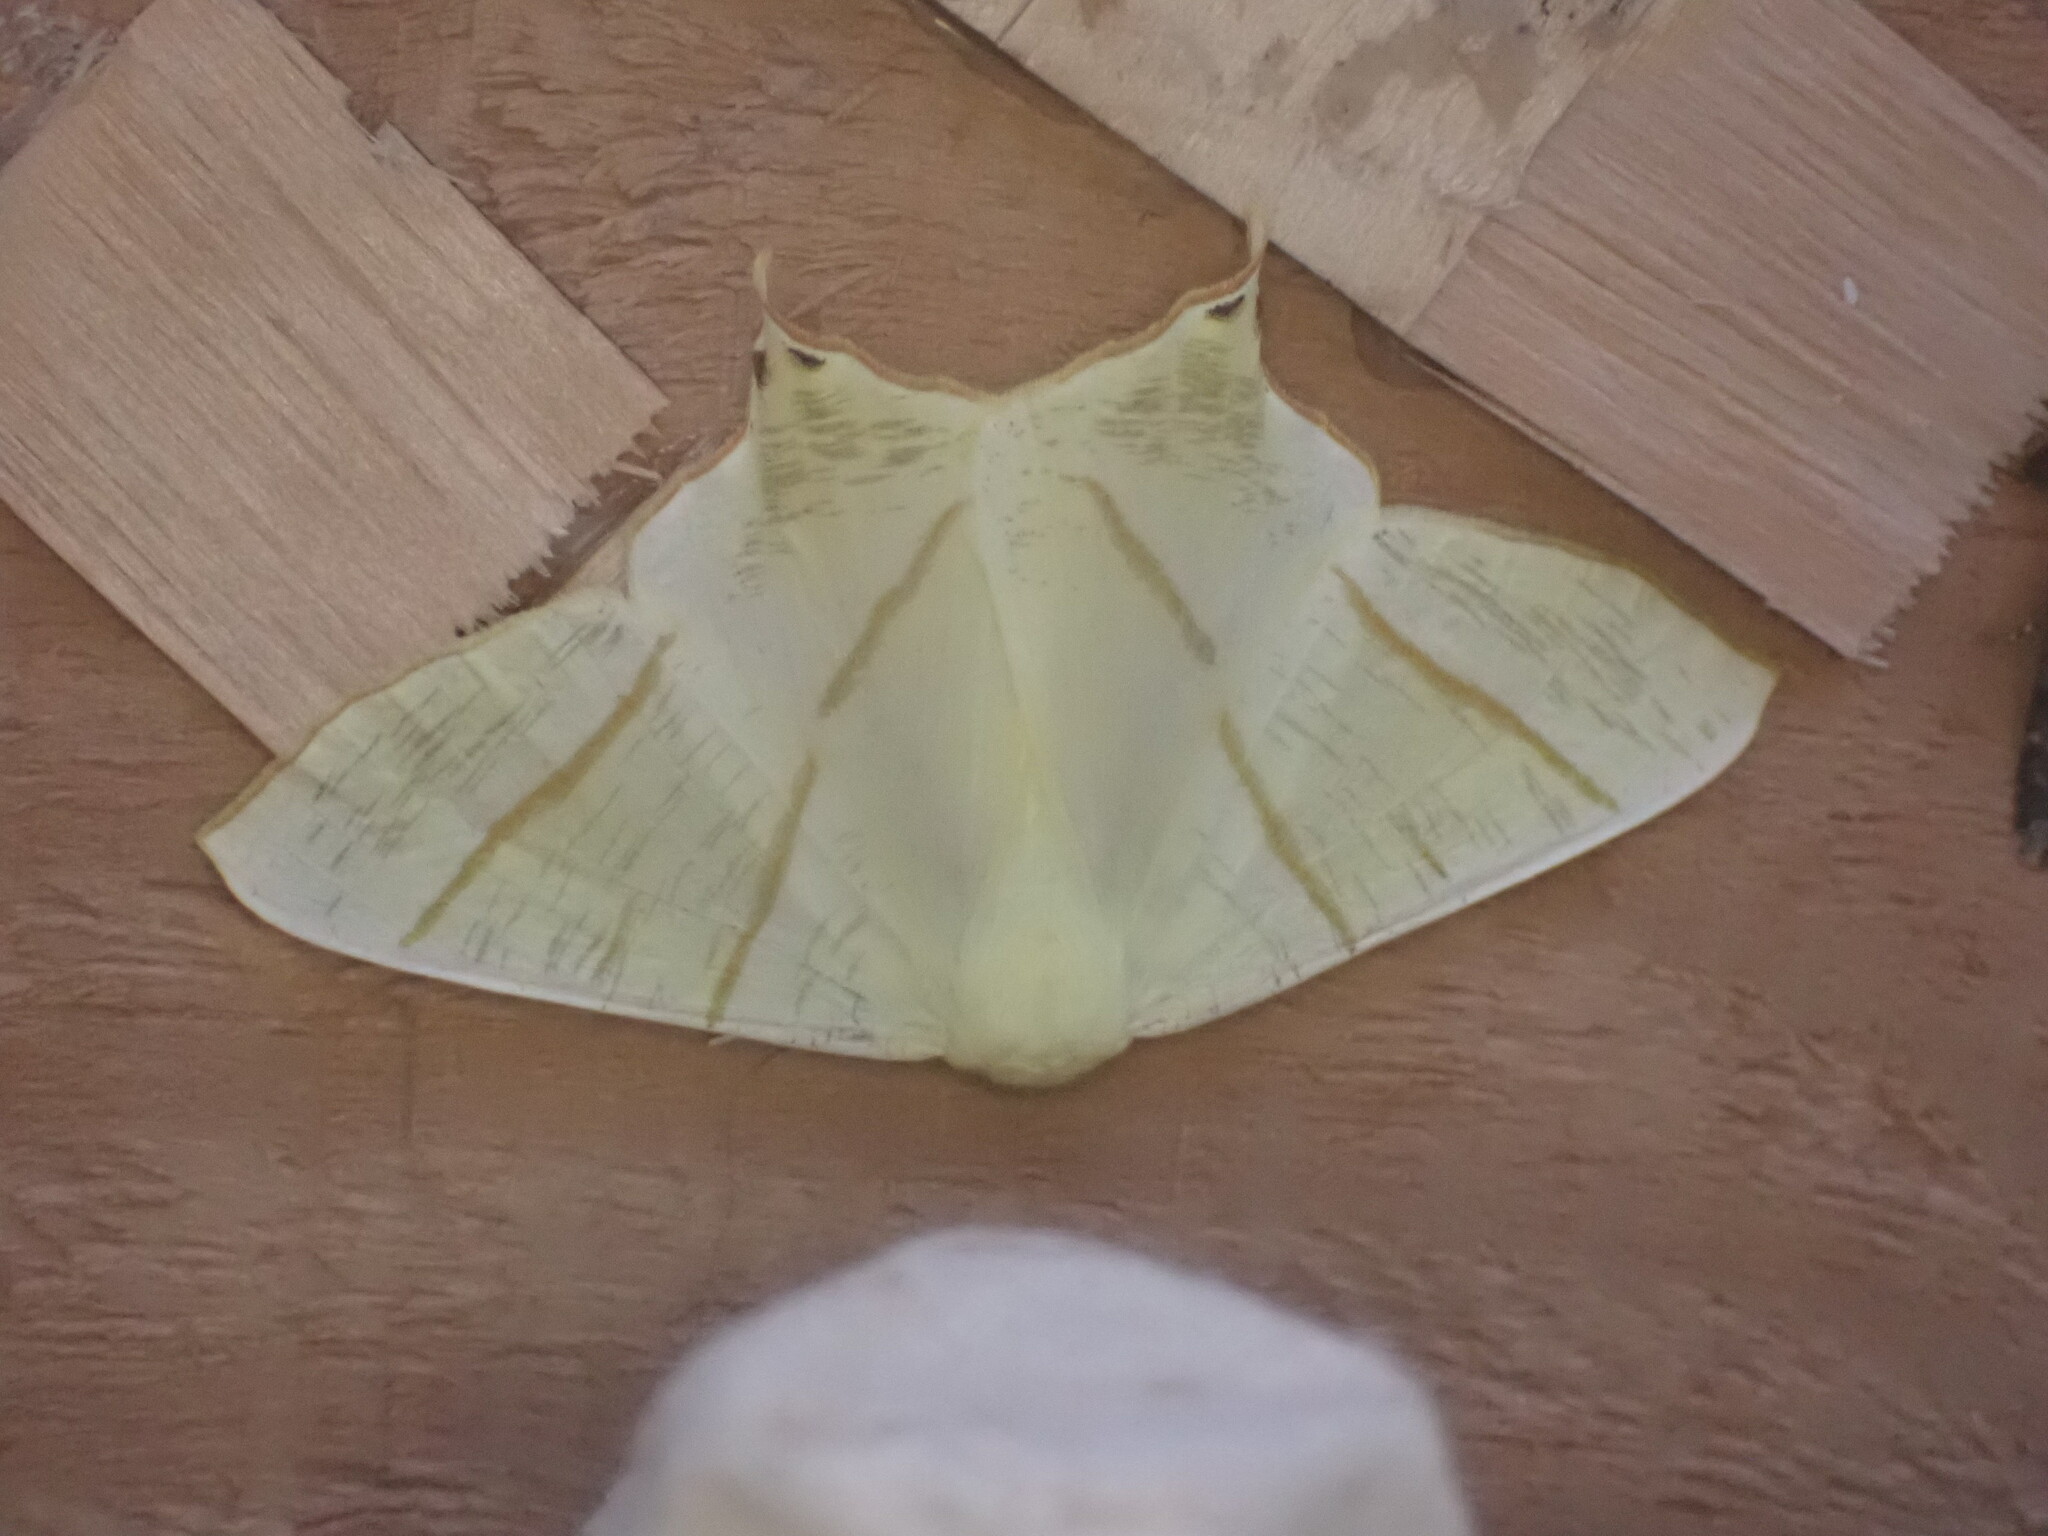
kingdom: Animalia
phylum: Arthropoda
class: Insecta
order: Lepidoptera
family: Geometridae
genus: Ourapteryx
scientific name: Ourapteryx sambucaria
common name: Swallow-tailed moth
